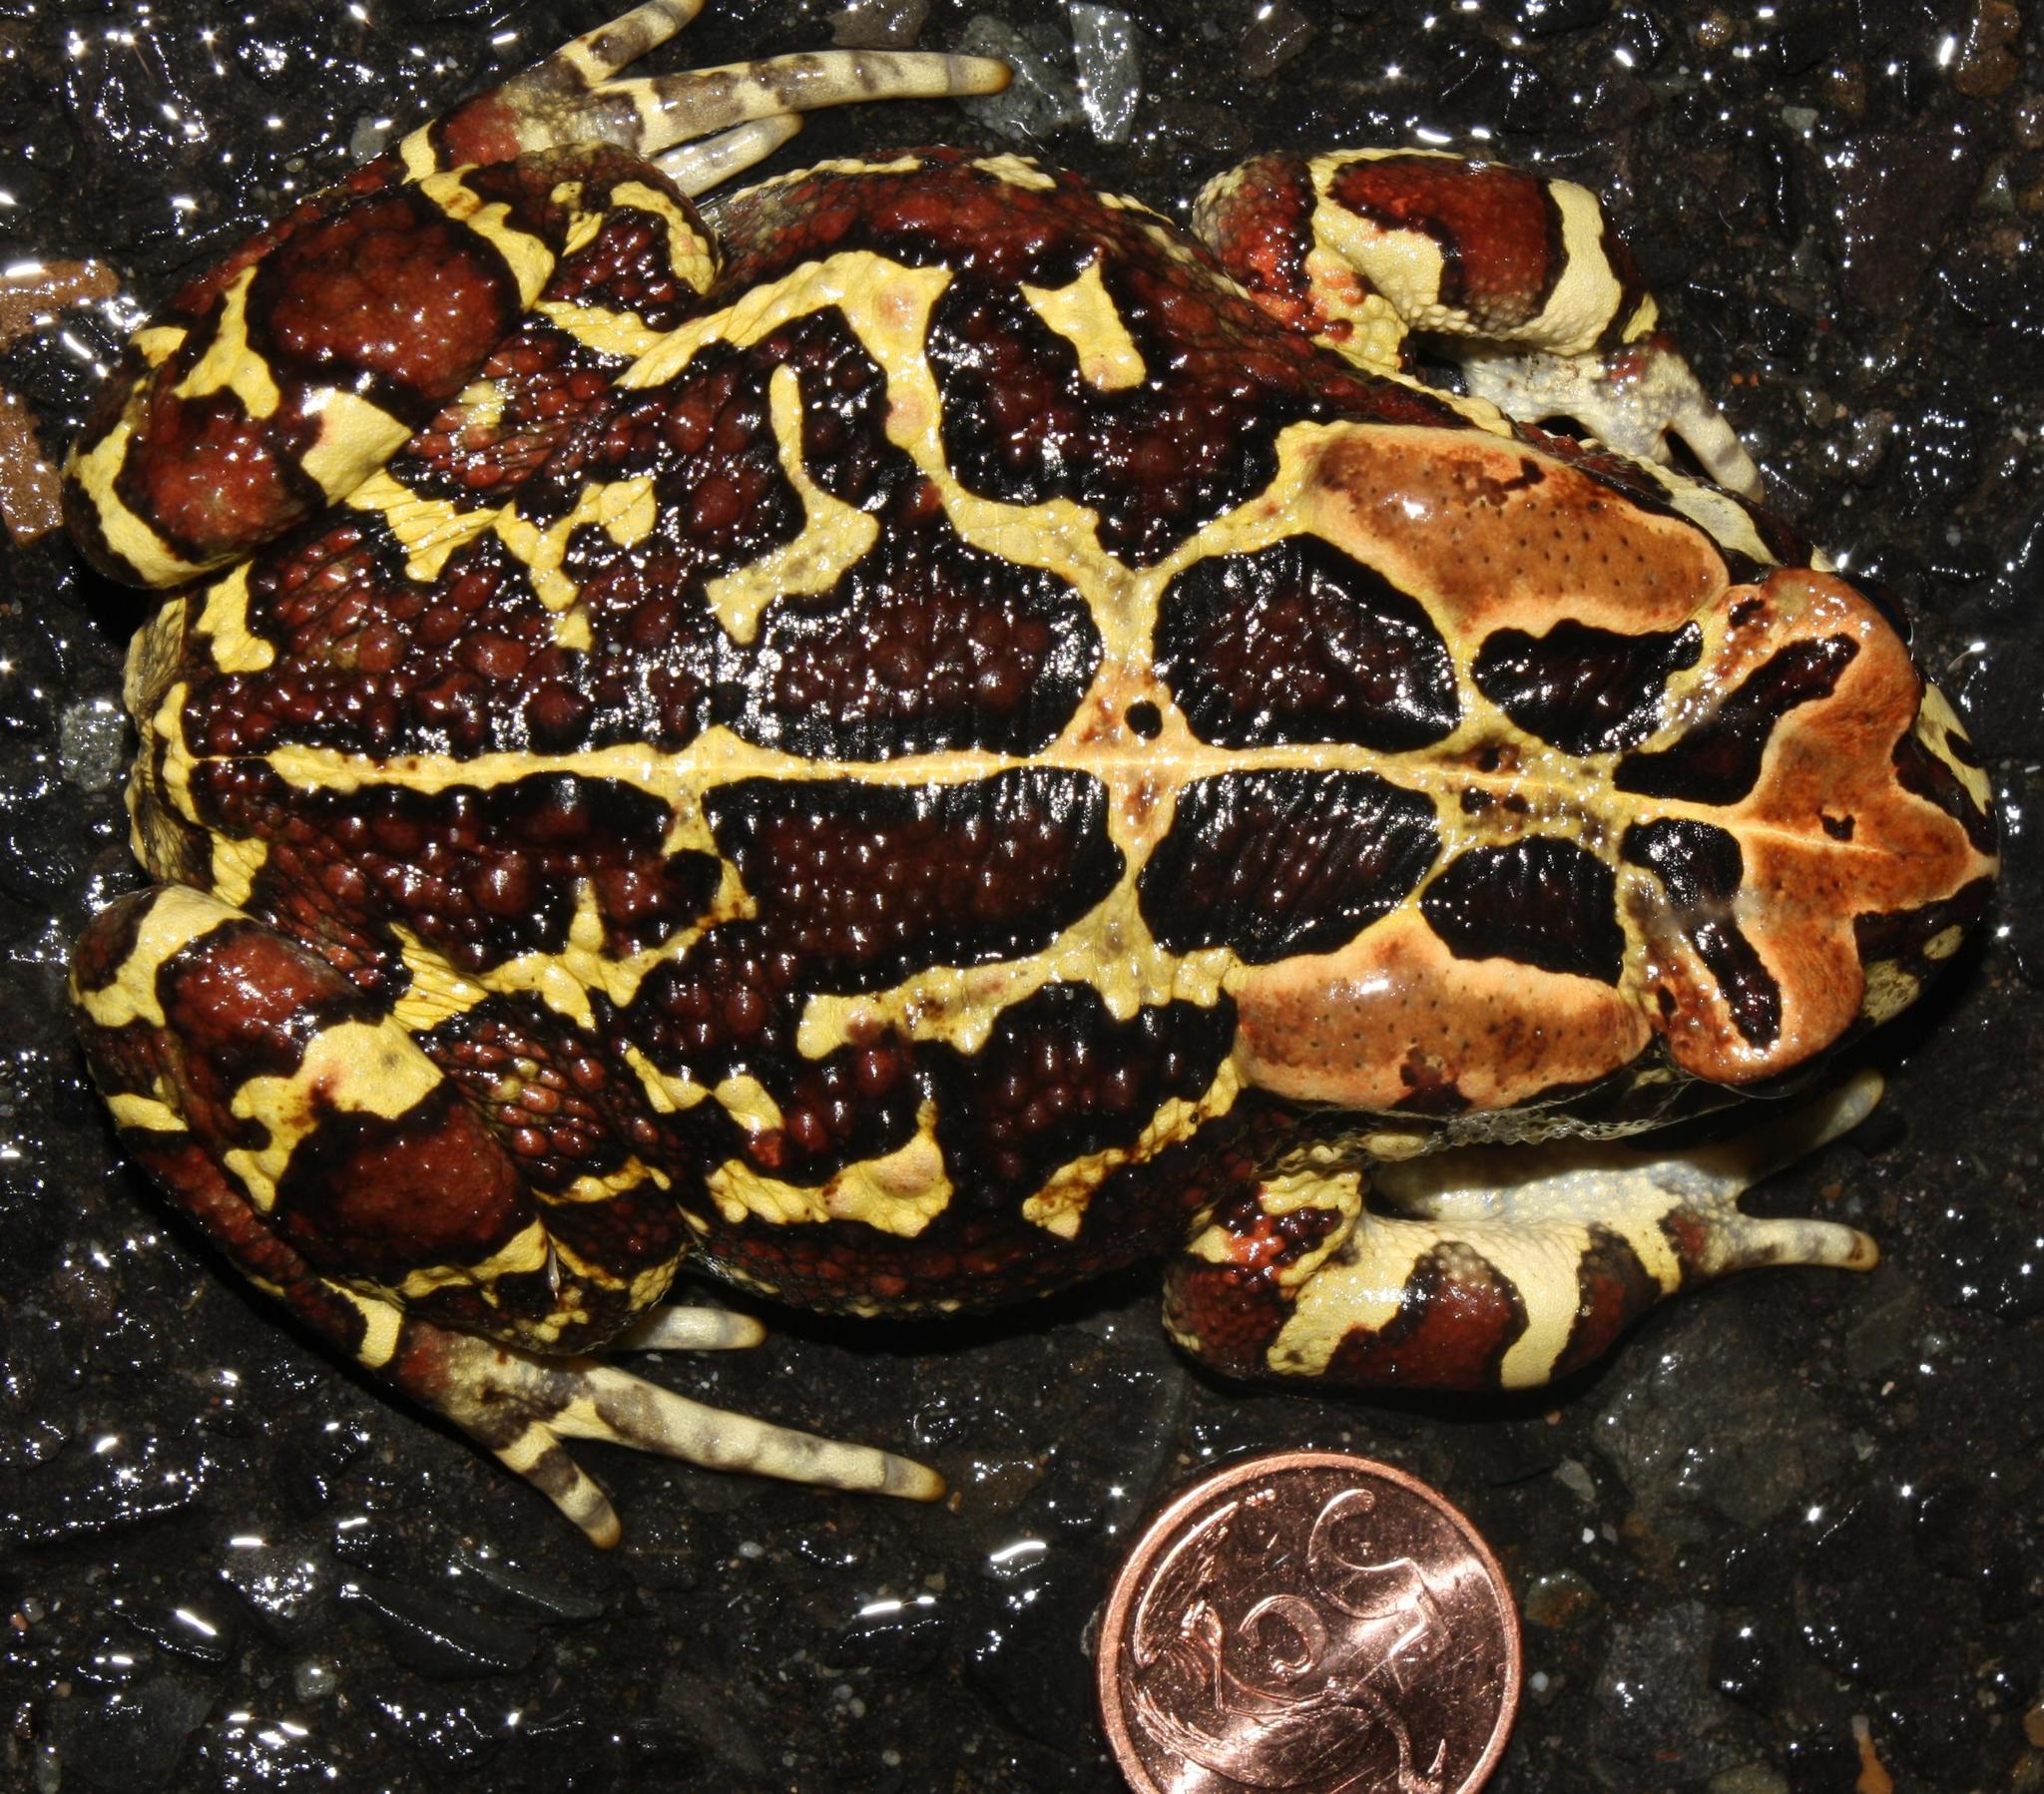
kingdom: Animalia
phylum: Chordata
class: Amphibia
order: Anura
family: Bufonidae
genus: Sclerophrys
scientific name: Sclerophrys pantherina
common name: Panther toad
